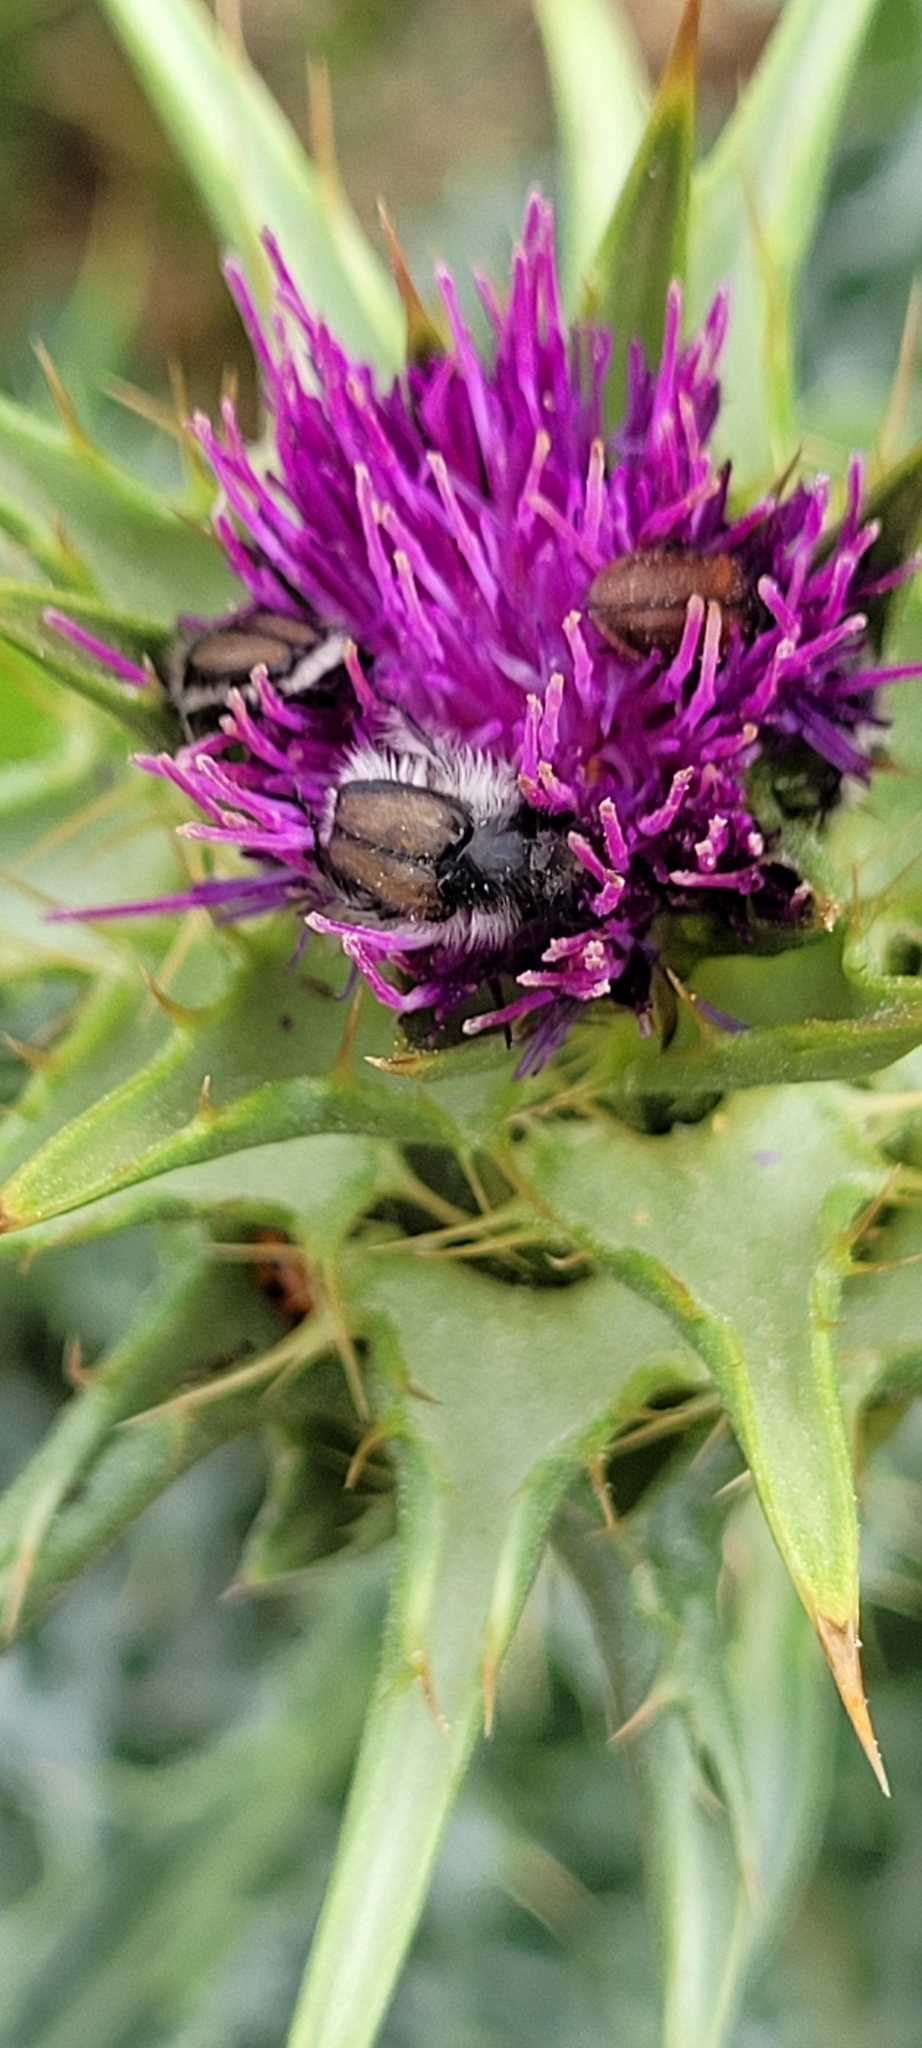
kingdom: Animalia
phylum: Arthropoda
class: Insecta
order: Coleoptera
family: Scarabaeidae
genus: Lichnia
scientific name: Lichnia limbata
